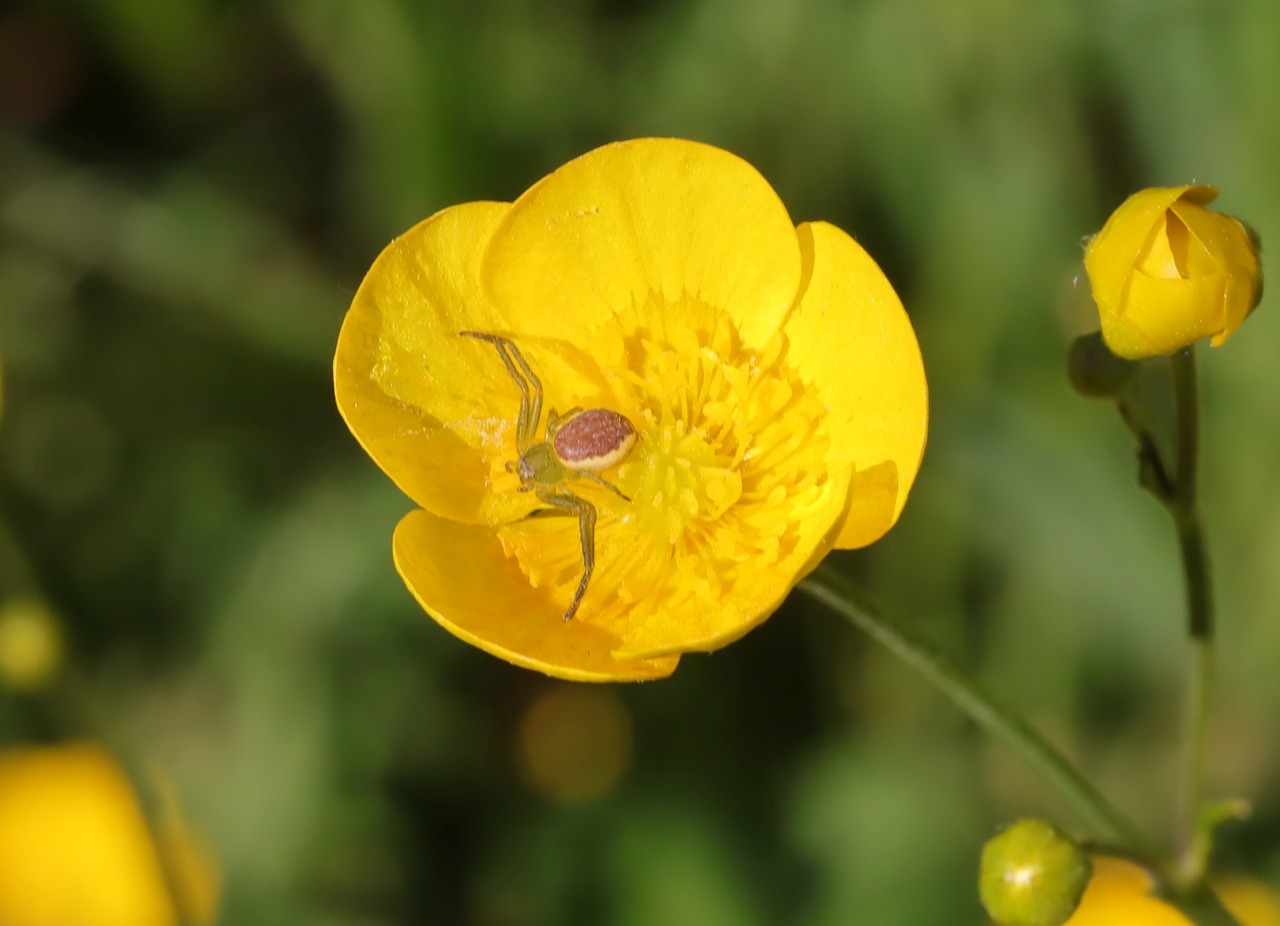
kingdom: Animalia
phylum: Arthropoda
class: Arachnida
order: Araneae
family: Thomisidae
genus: Diaea
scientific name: Diaea dorsata
